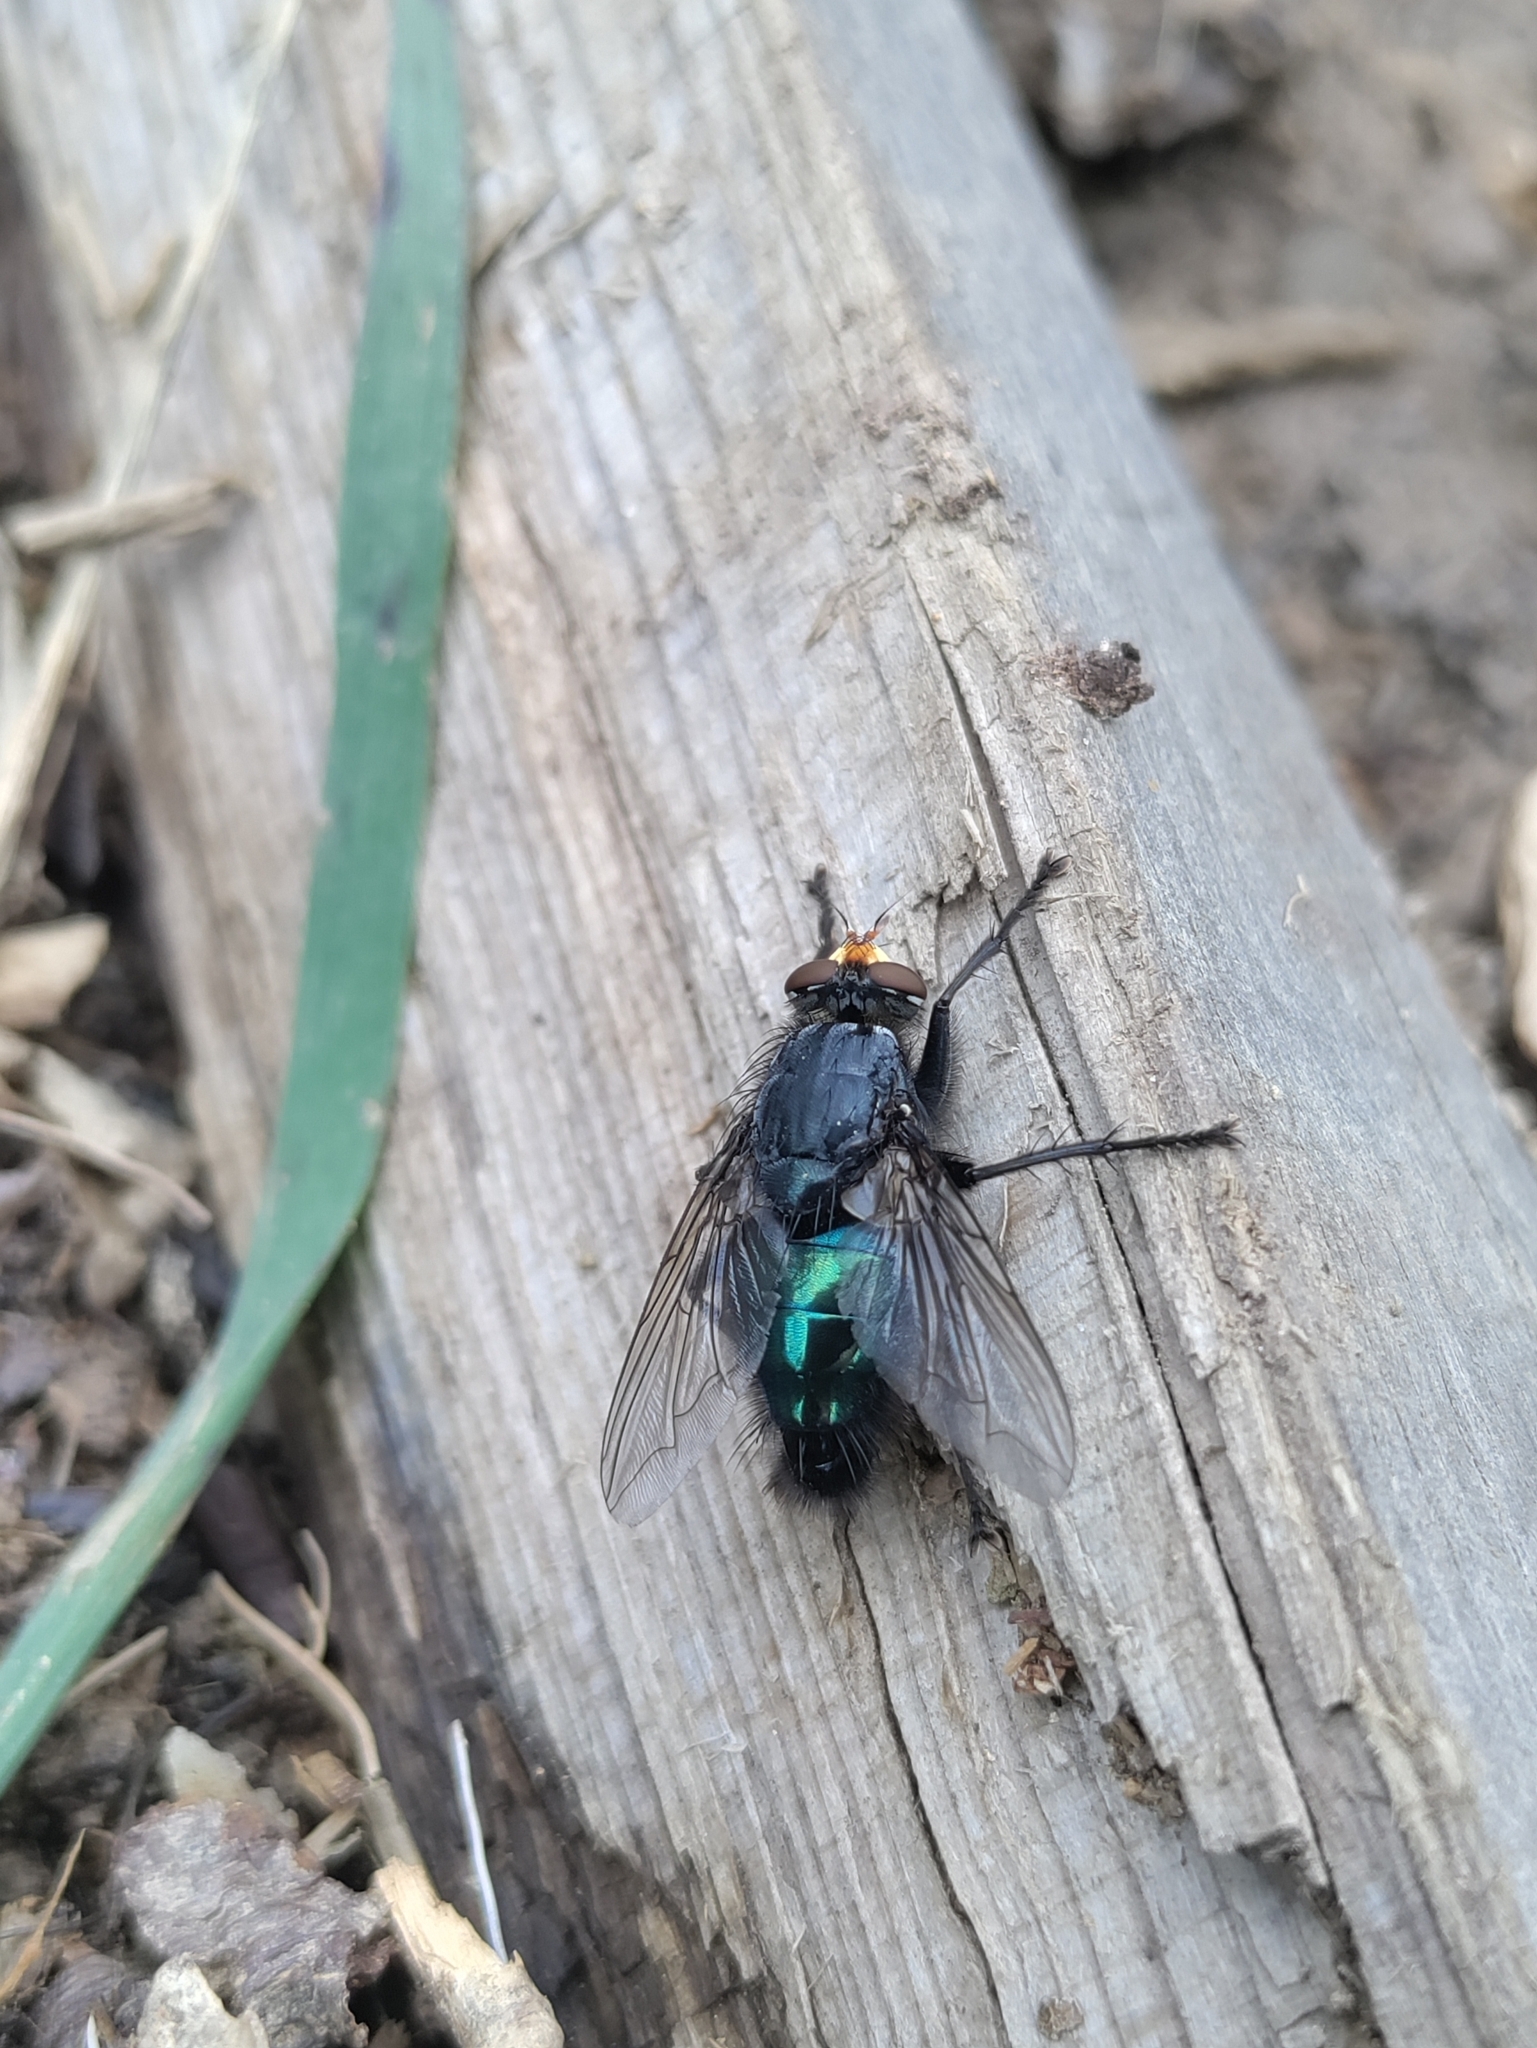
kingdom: Animalia
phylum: Arthropoda
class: Insecta
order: Diptera
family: Calliphoridae
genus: Cynomya
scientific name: Cynomya mortuorum
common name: Bluebottle blow fly
